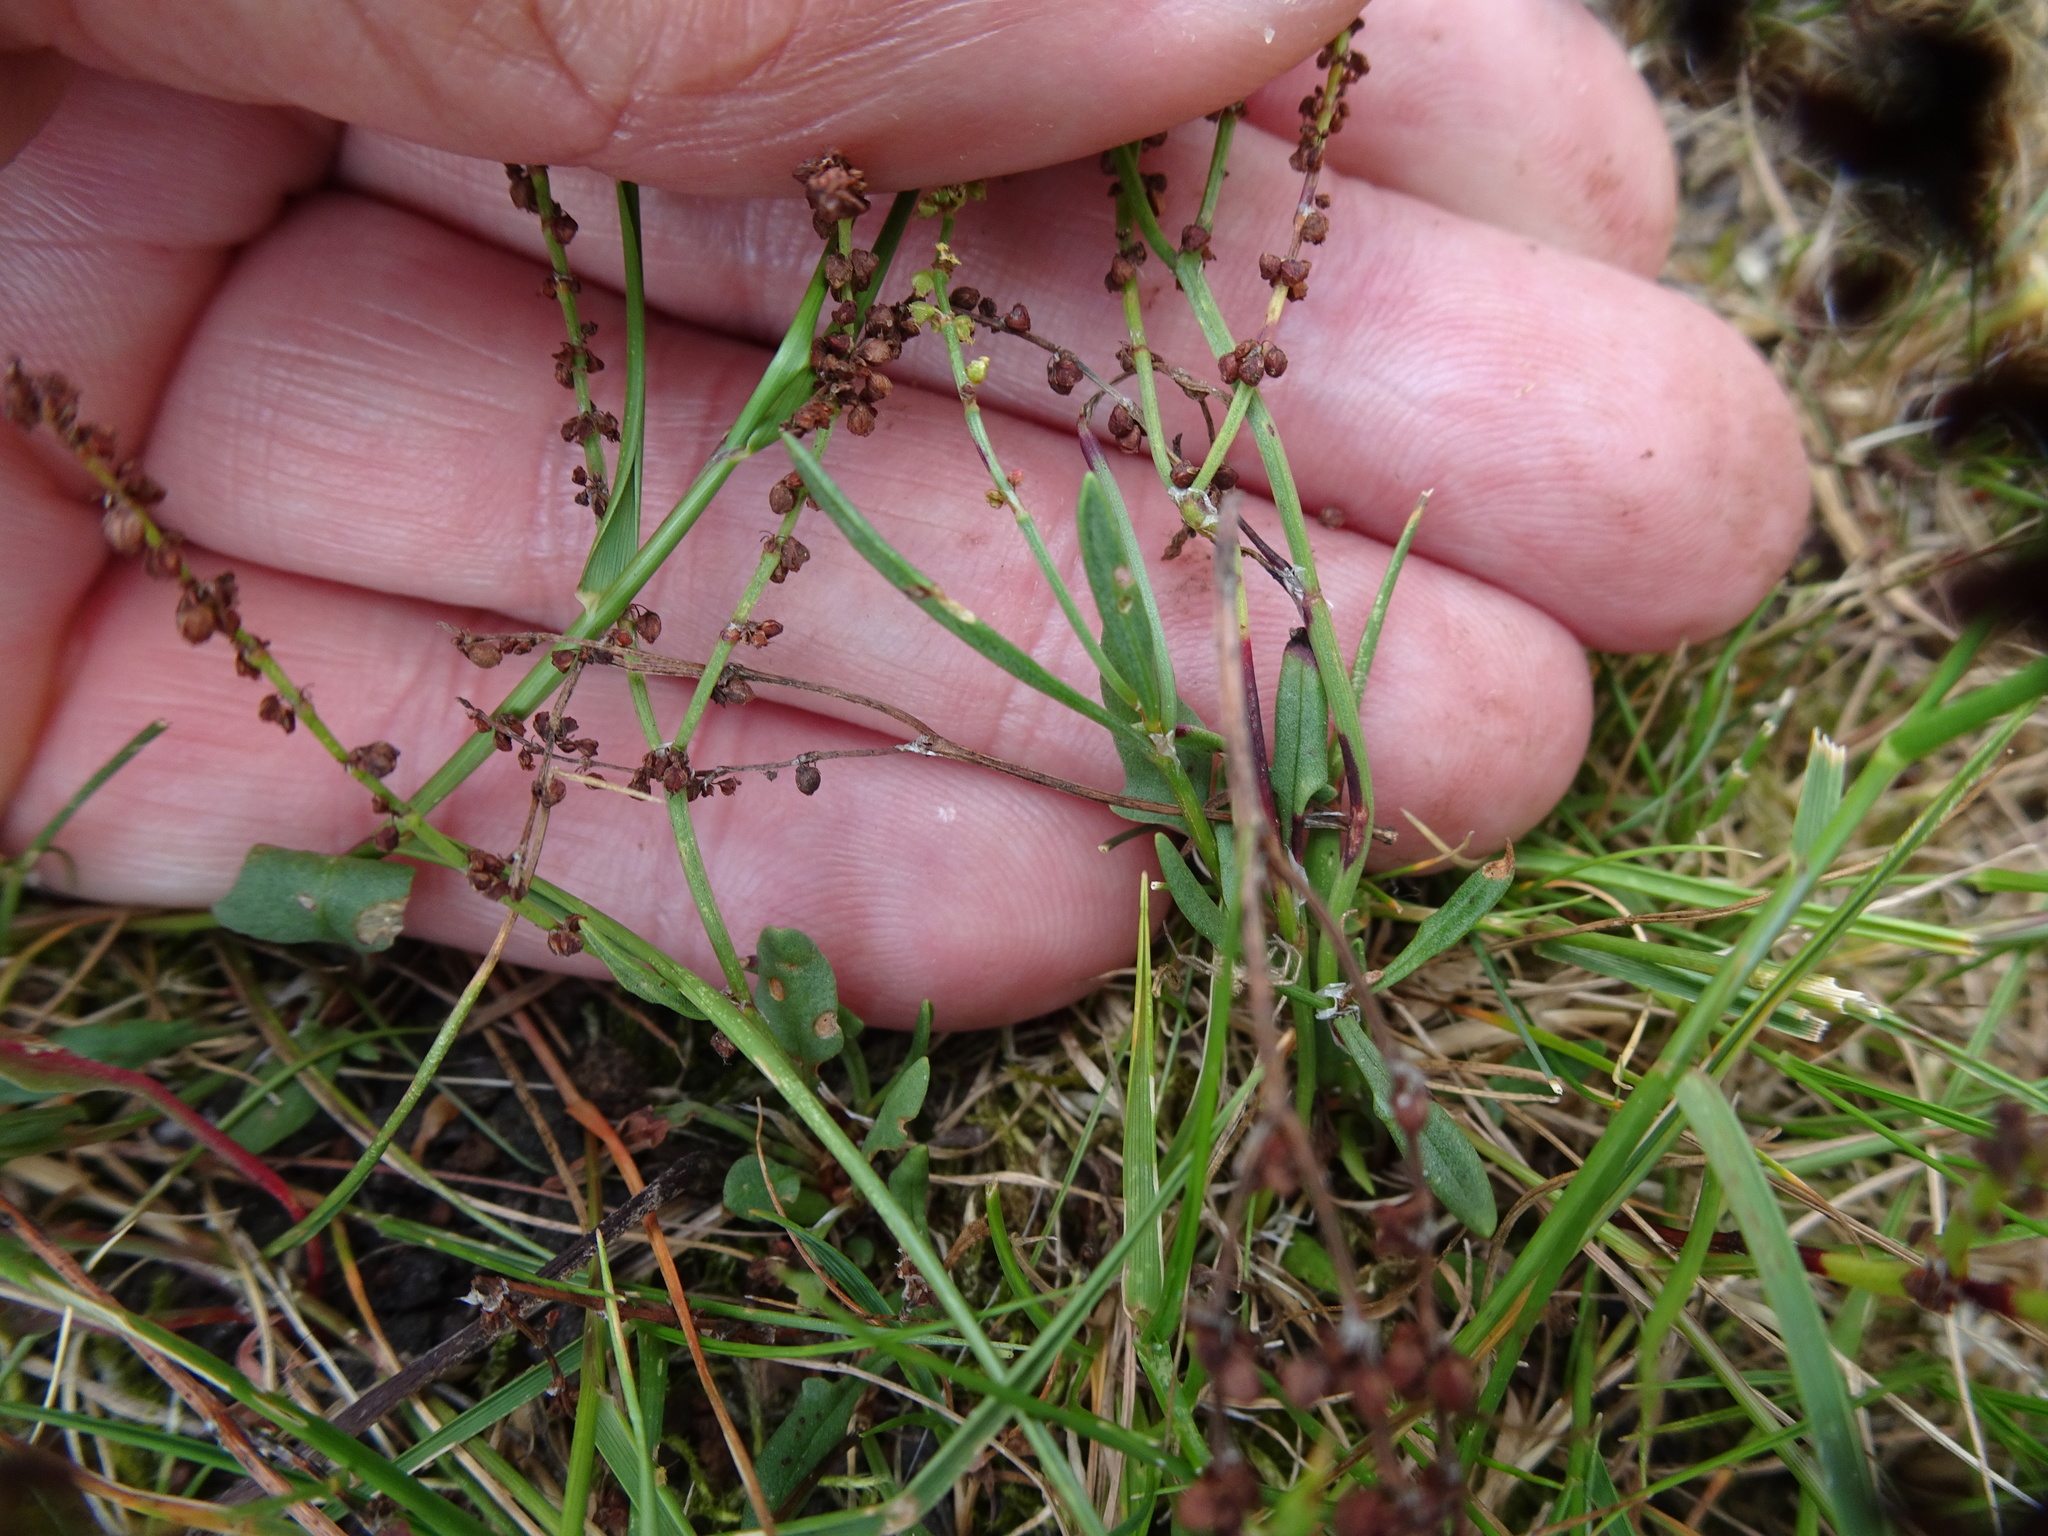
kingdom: Plantae
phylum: Tracheophyta
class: Magnoliopsida
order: Caryophyllales
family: Polygonaceae
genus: Rumex
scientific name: Rumex acetosella
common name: Common sheep sorrel
